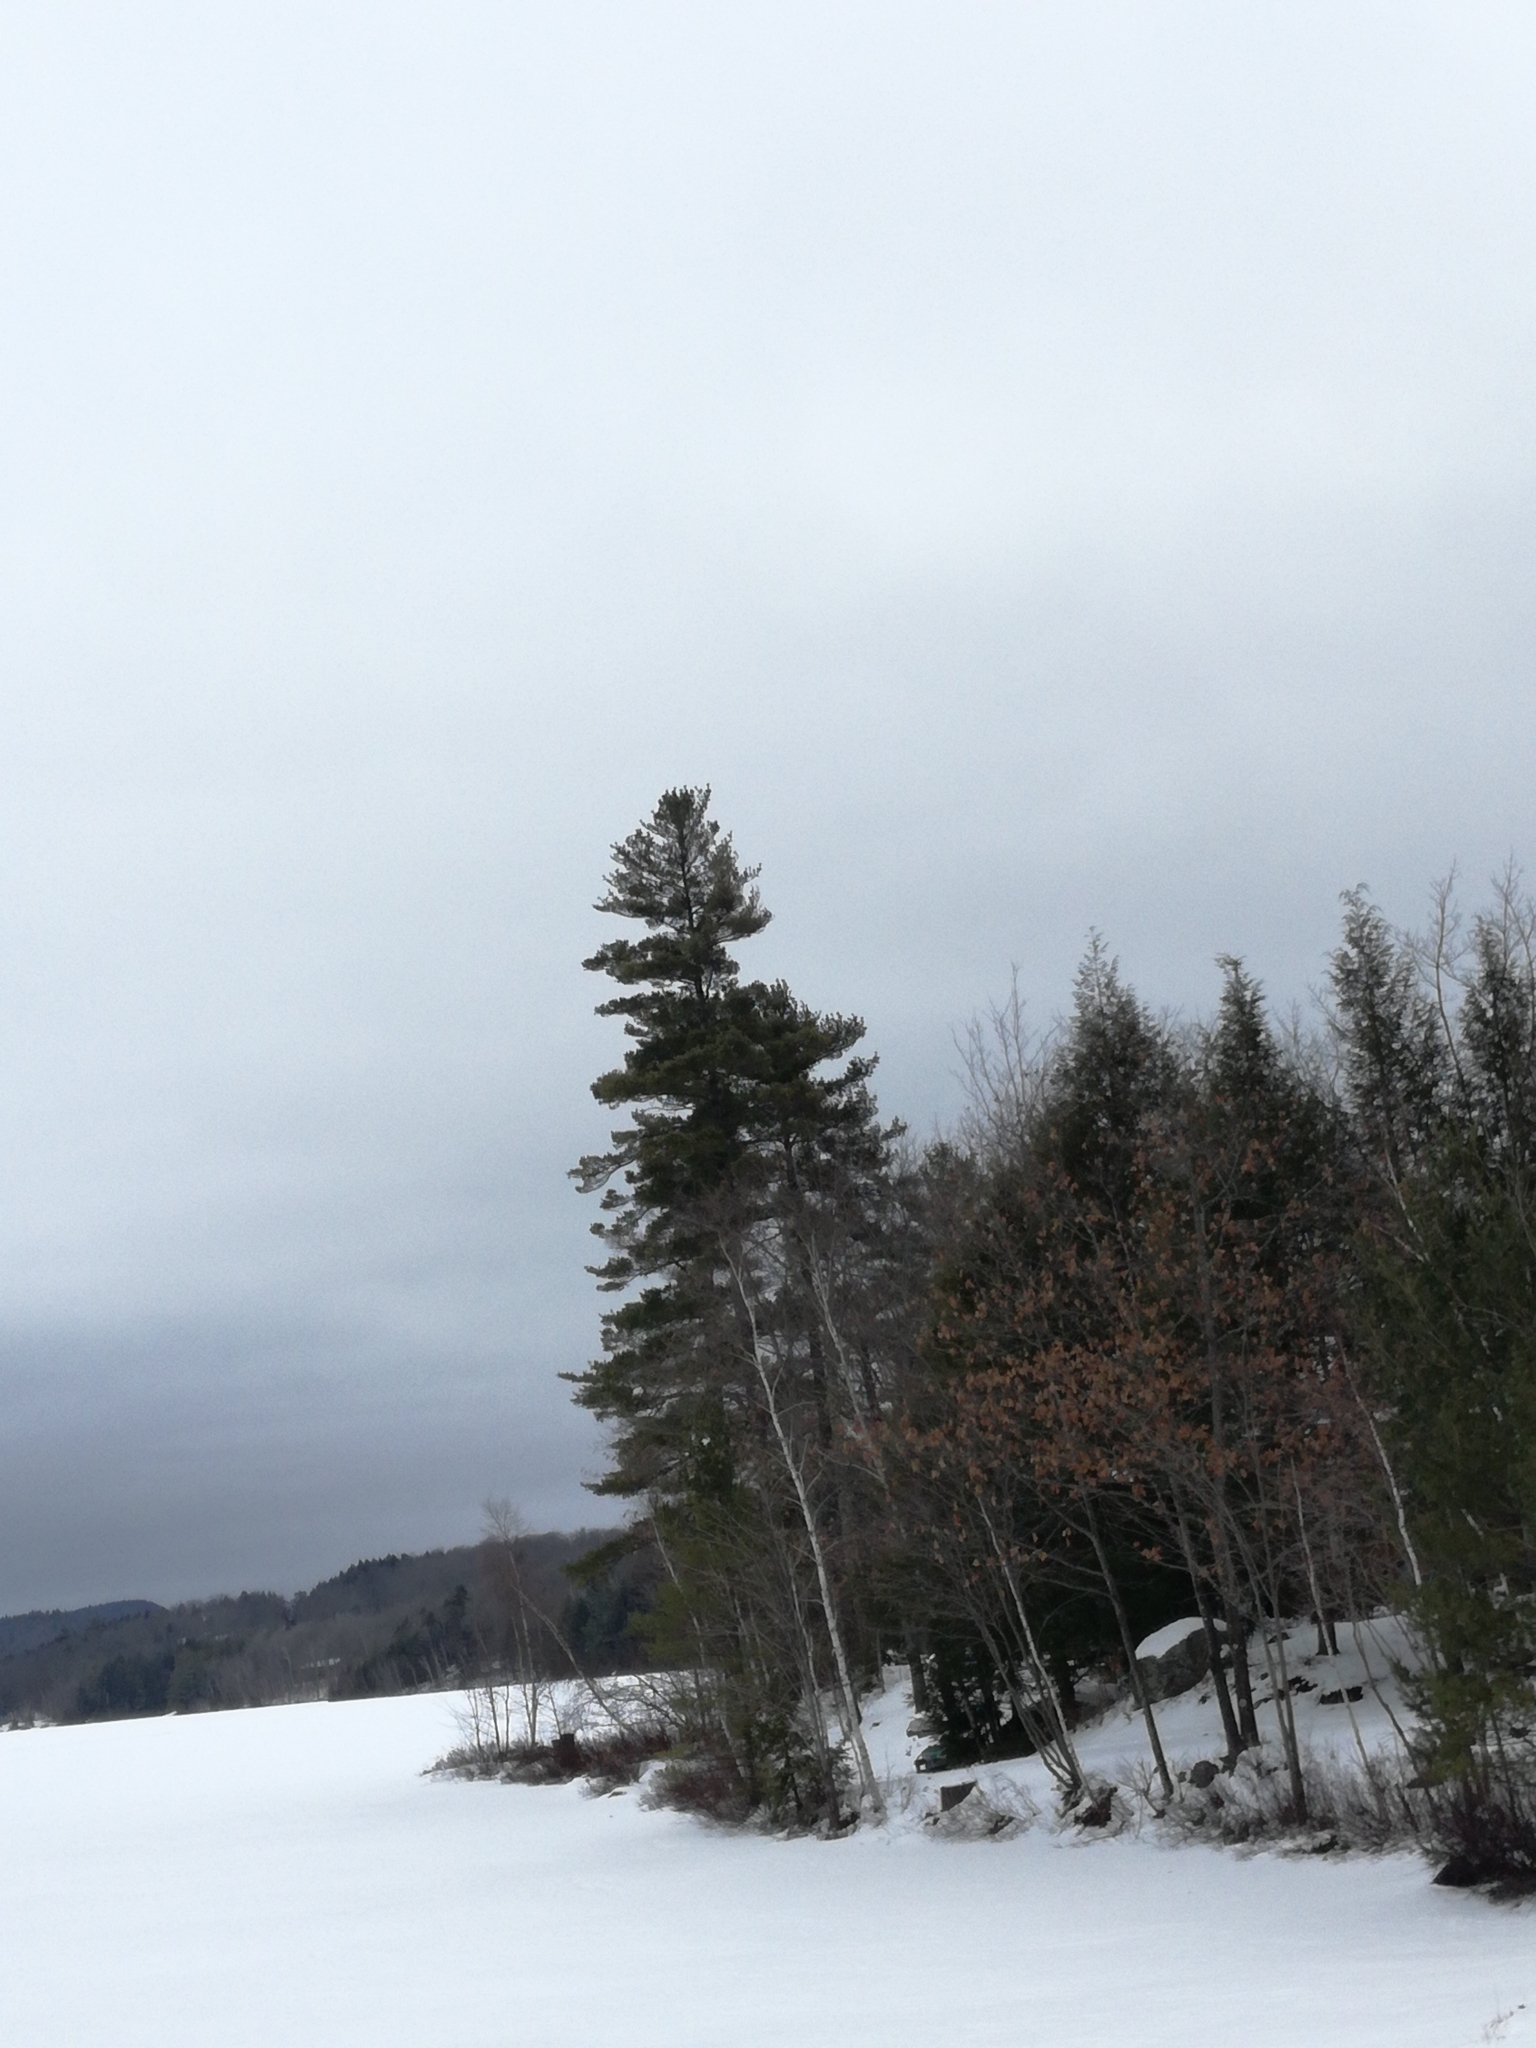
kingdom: Plantae
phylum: Tracheophyta
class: Pinopsida
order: Pinales
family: Pinaceae
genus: Pinus
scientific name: Pinus strobus
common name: Weymouth pine
